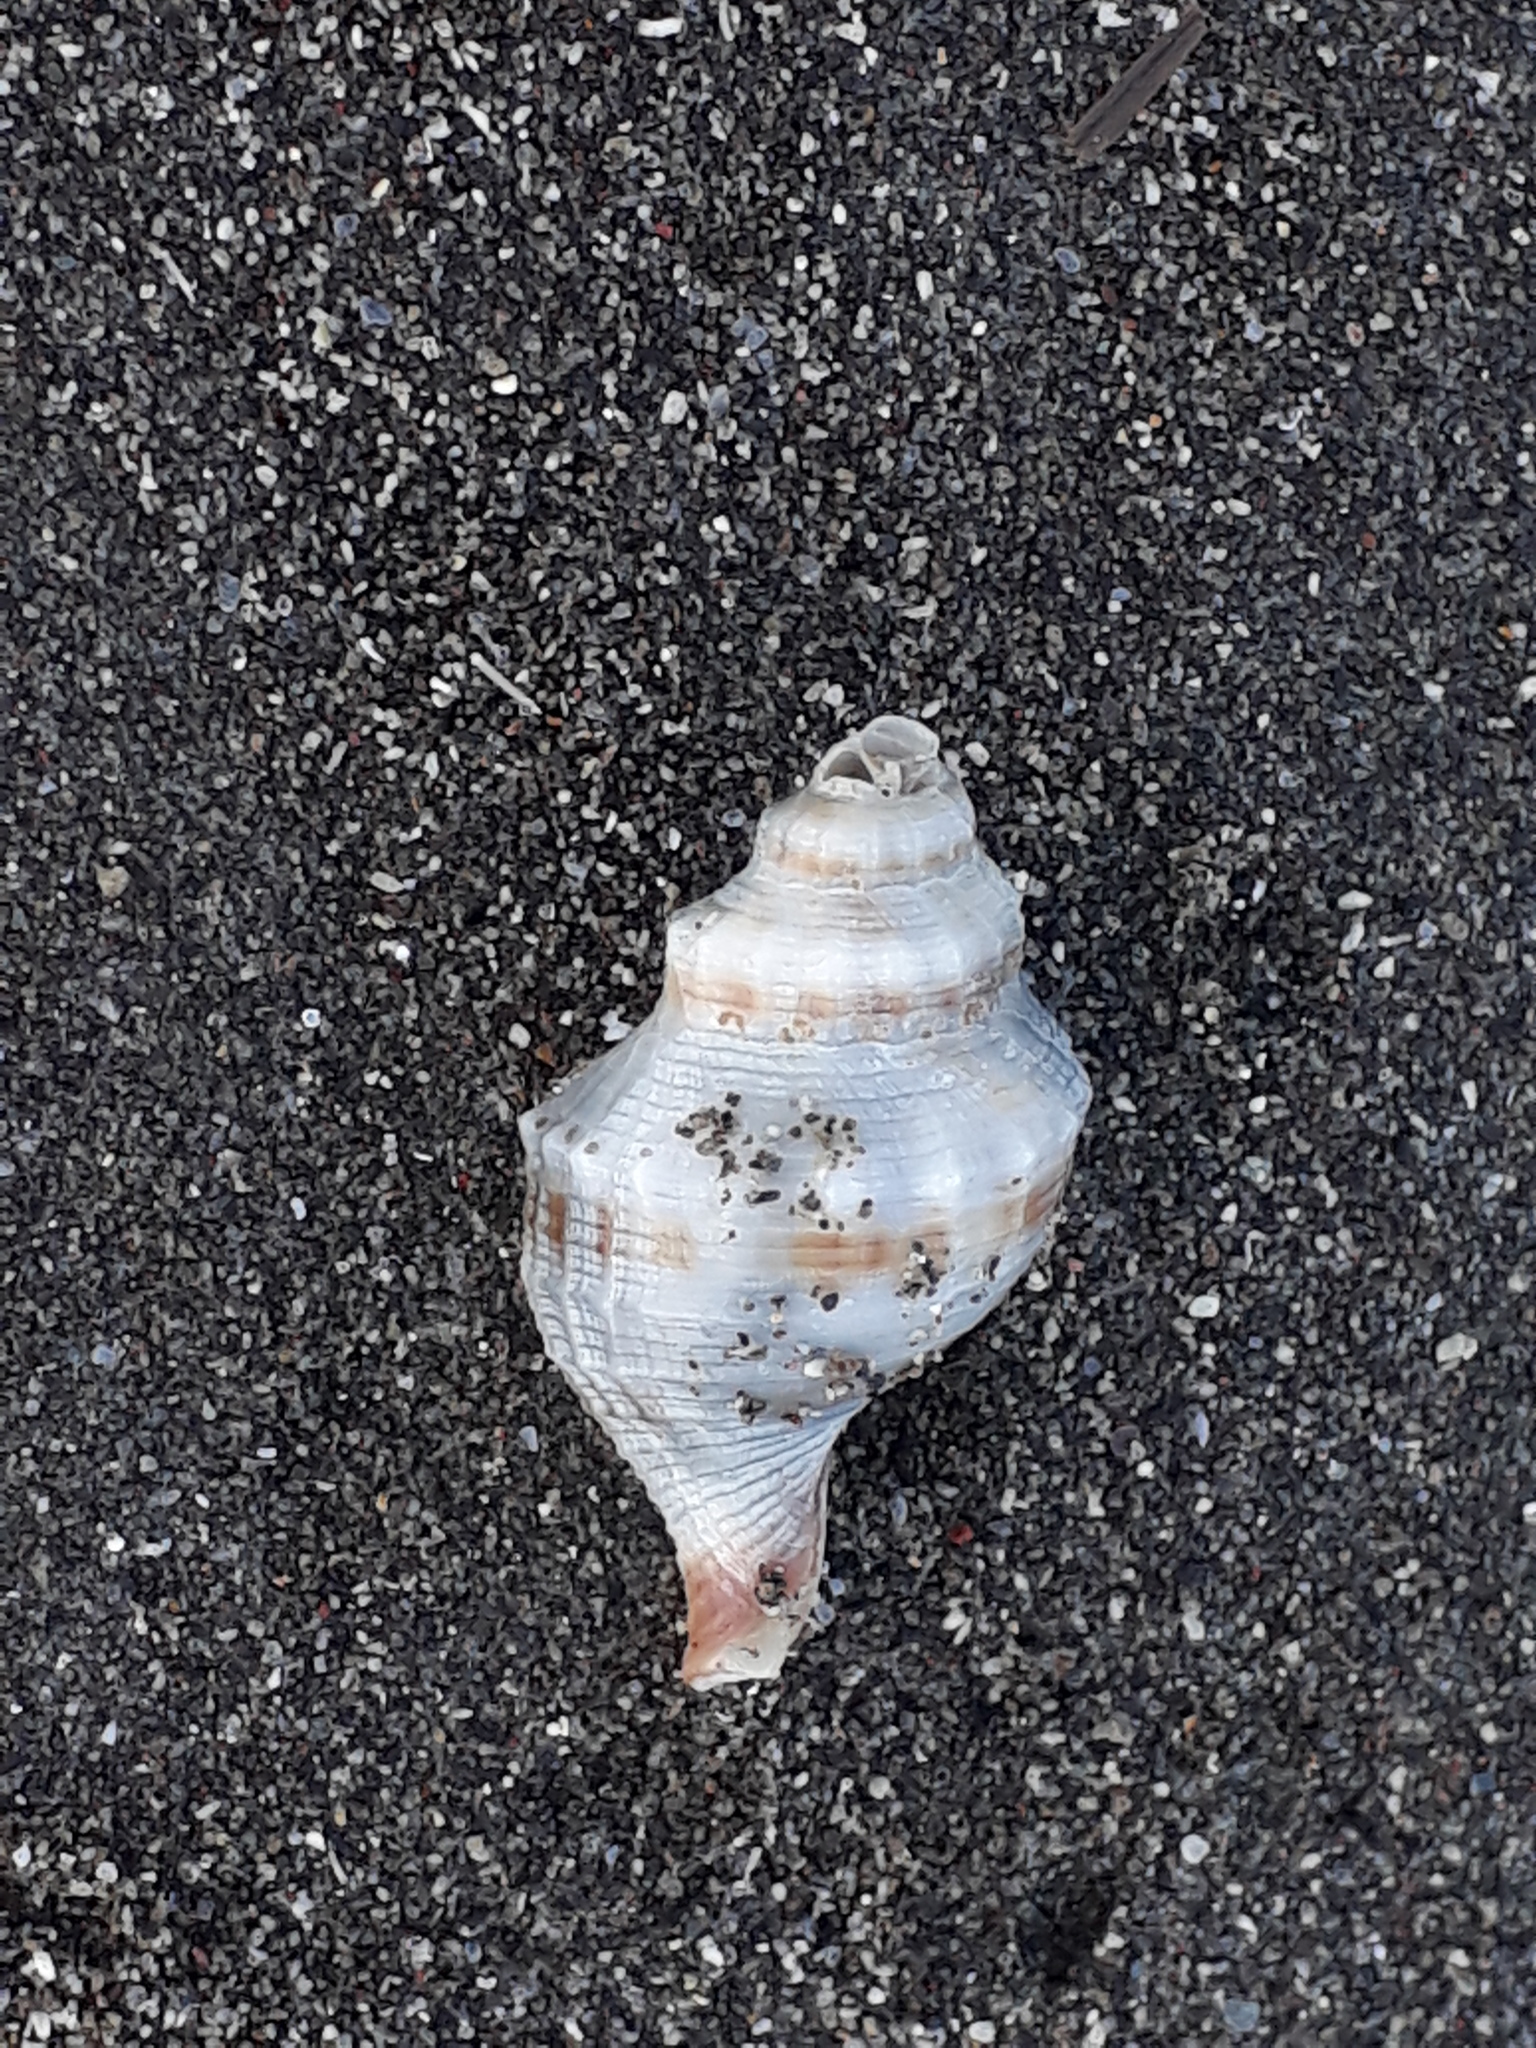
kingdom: Animalia
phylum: Mollusca
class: Gastropoda
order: Neogastropoda
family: Prosiphonidae
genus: Austrofusus
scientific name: Austrofusus glans
